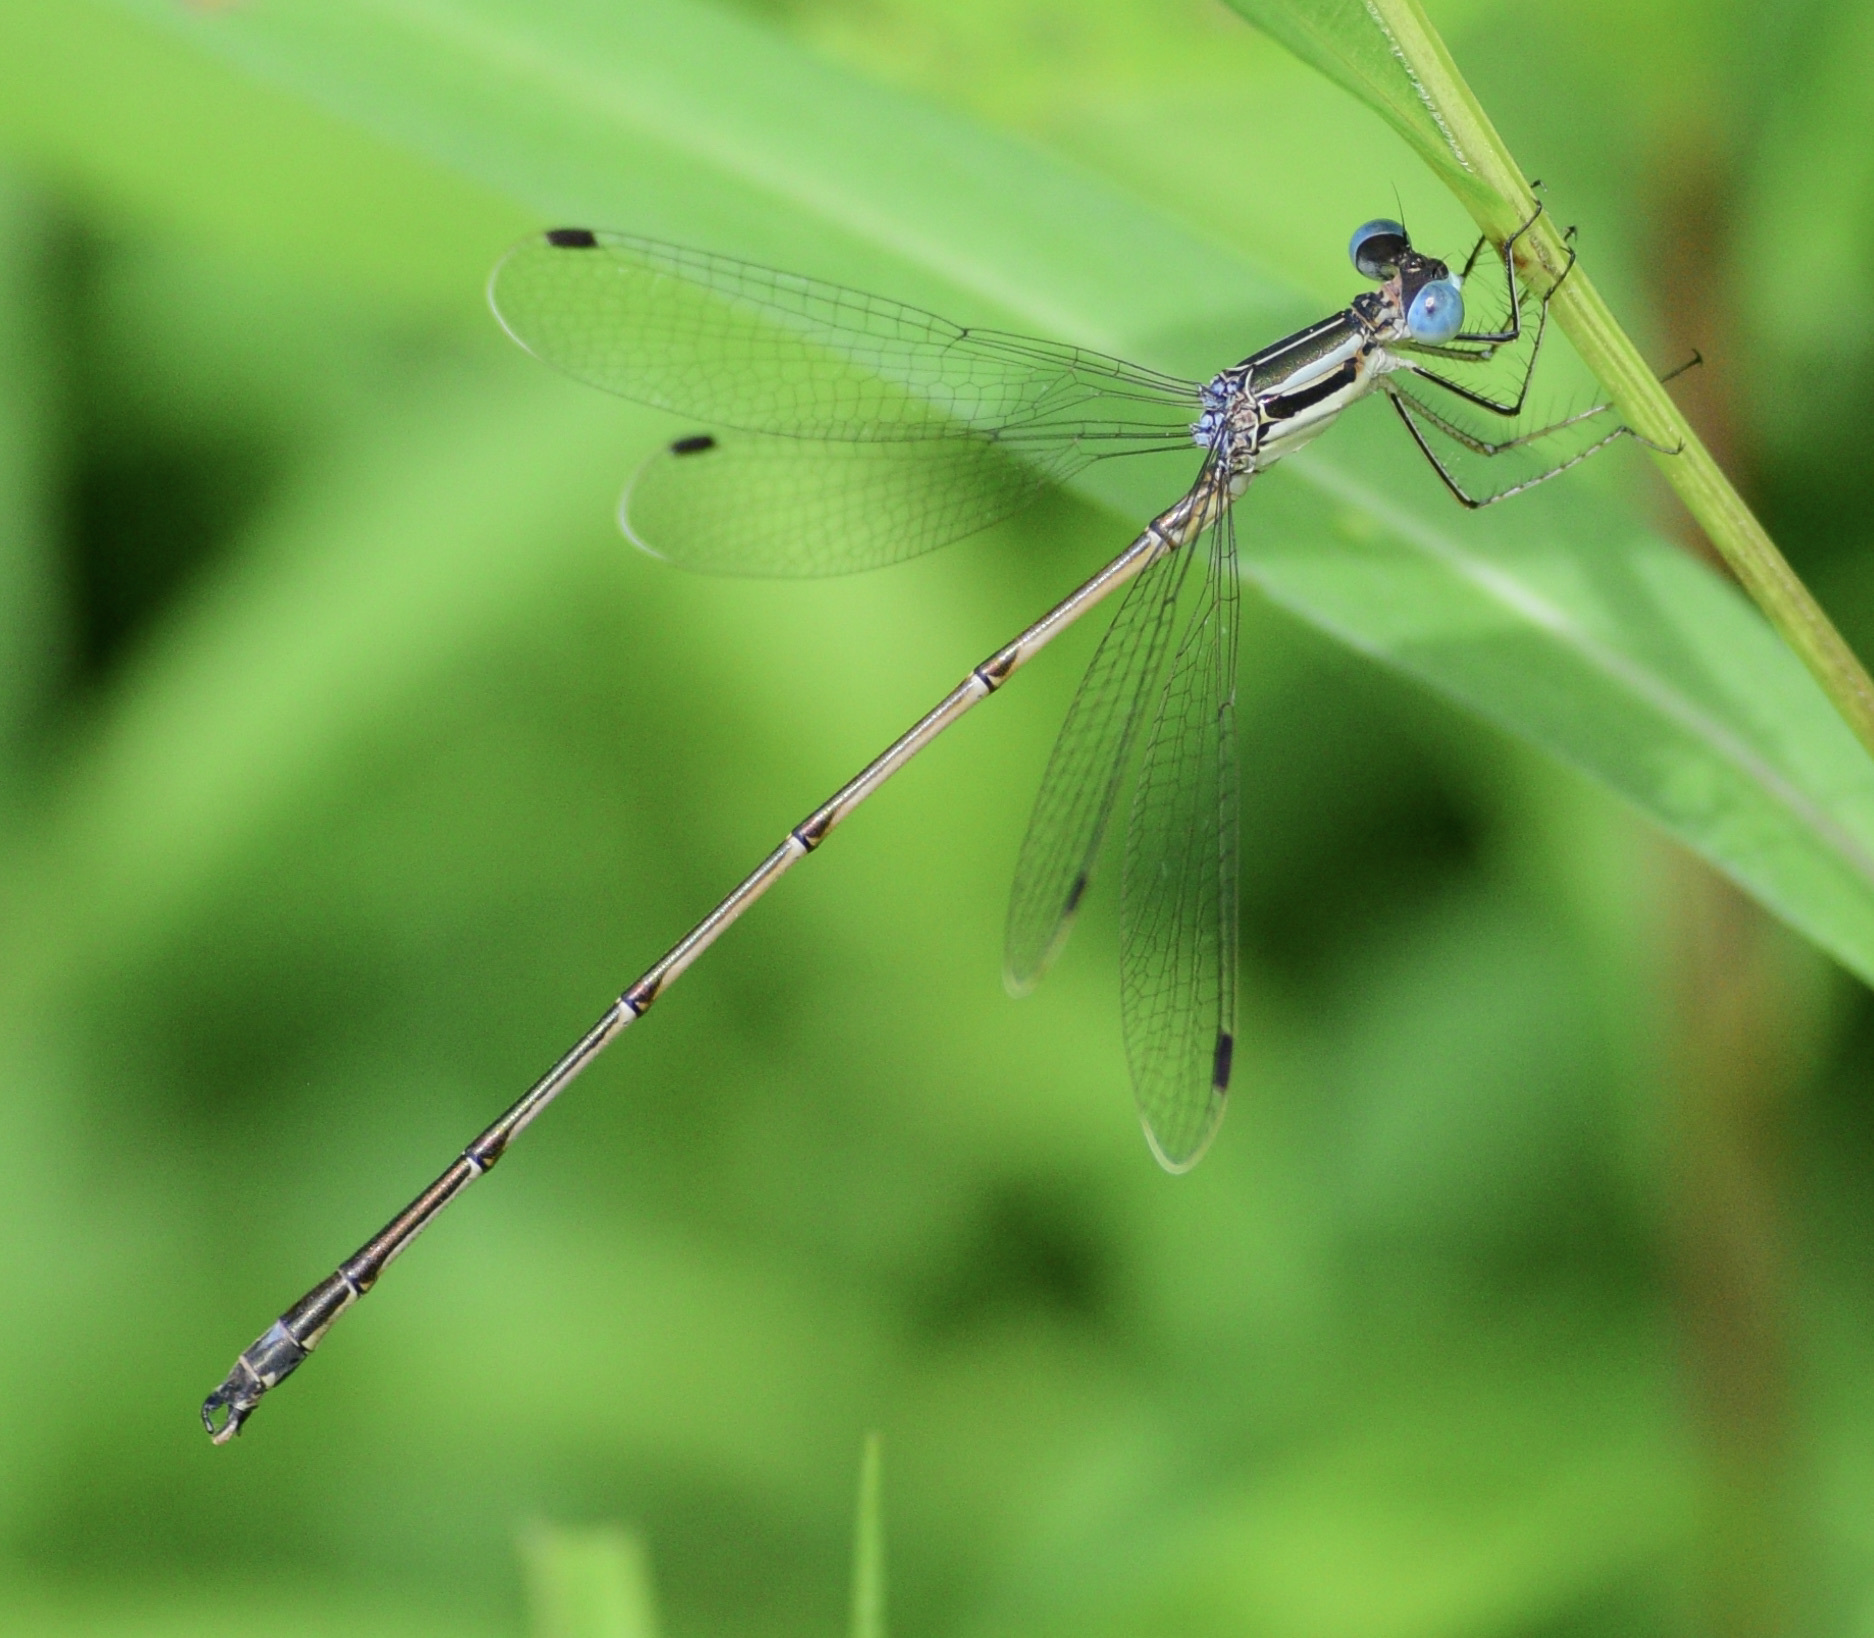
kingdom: Animalia
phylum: Arthropoda
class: Insecta
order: Odonata
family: Lestidae
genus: Lestes
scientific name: Lestes rectangularis
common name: Slender spreadwing
